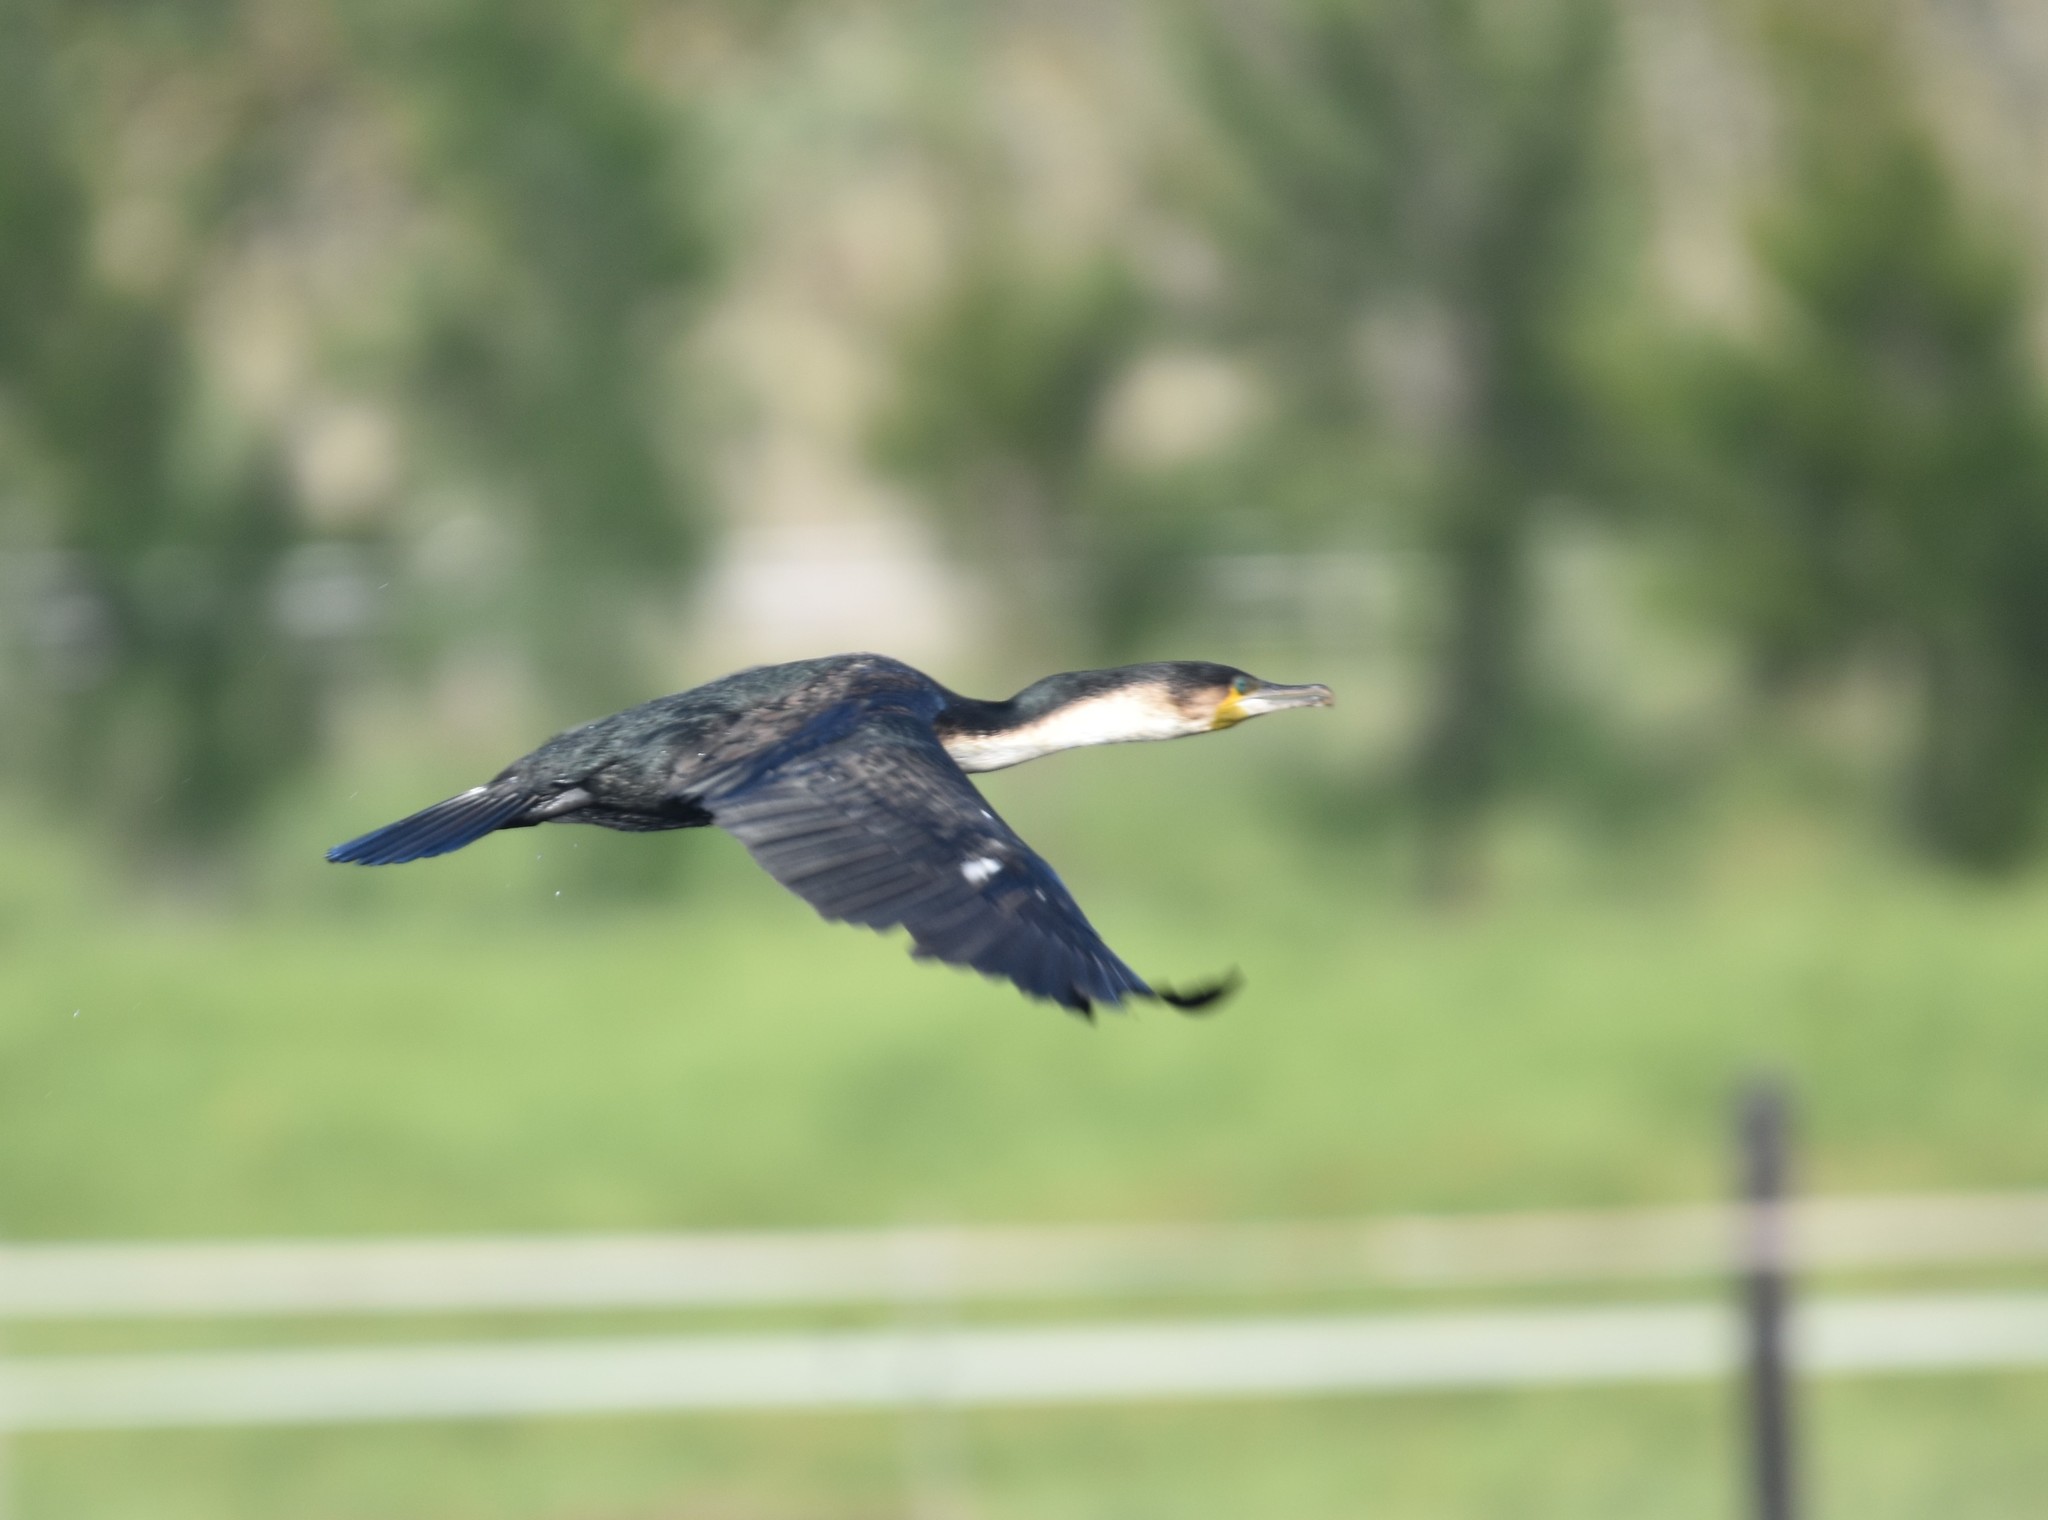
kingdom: Animalia
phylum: Chordata
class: Aves
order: Suliformes
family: Phalacrocoracidae
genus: Phalacrocorax
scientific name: Phalacrocorax carbo
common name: Great cormorant
